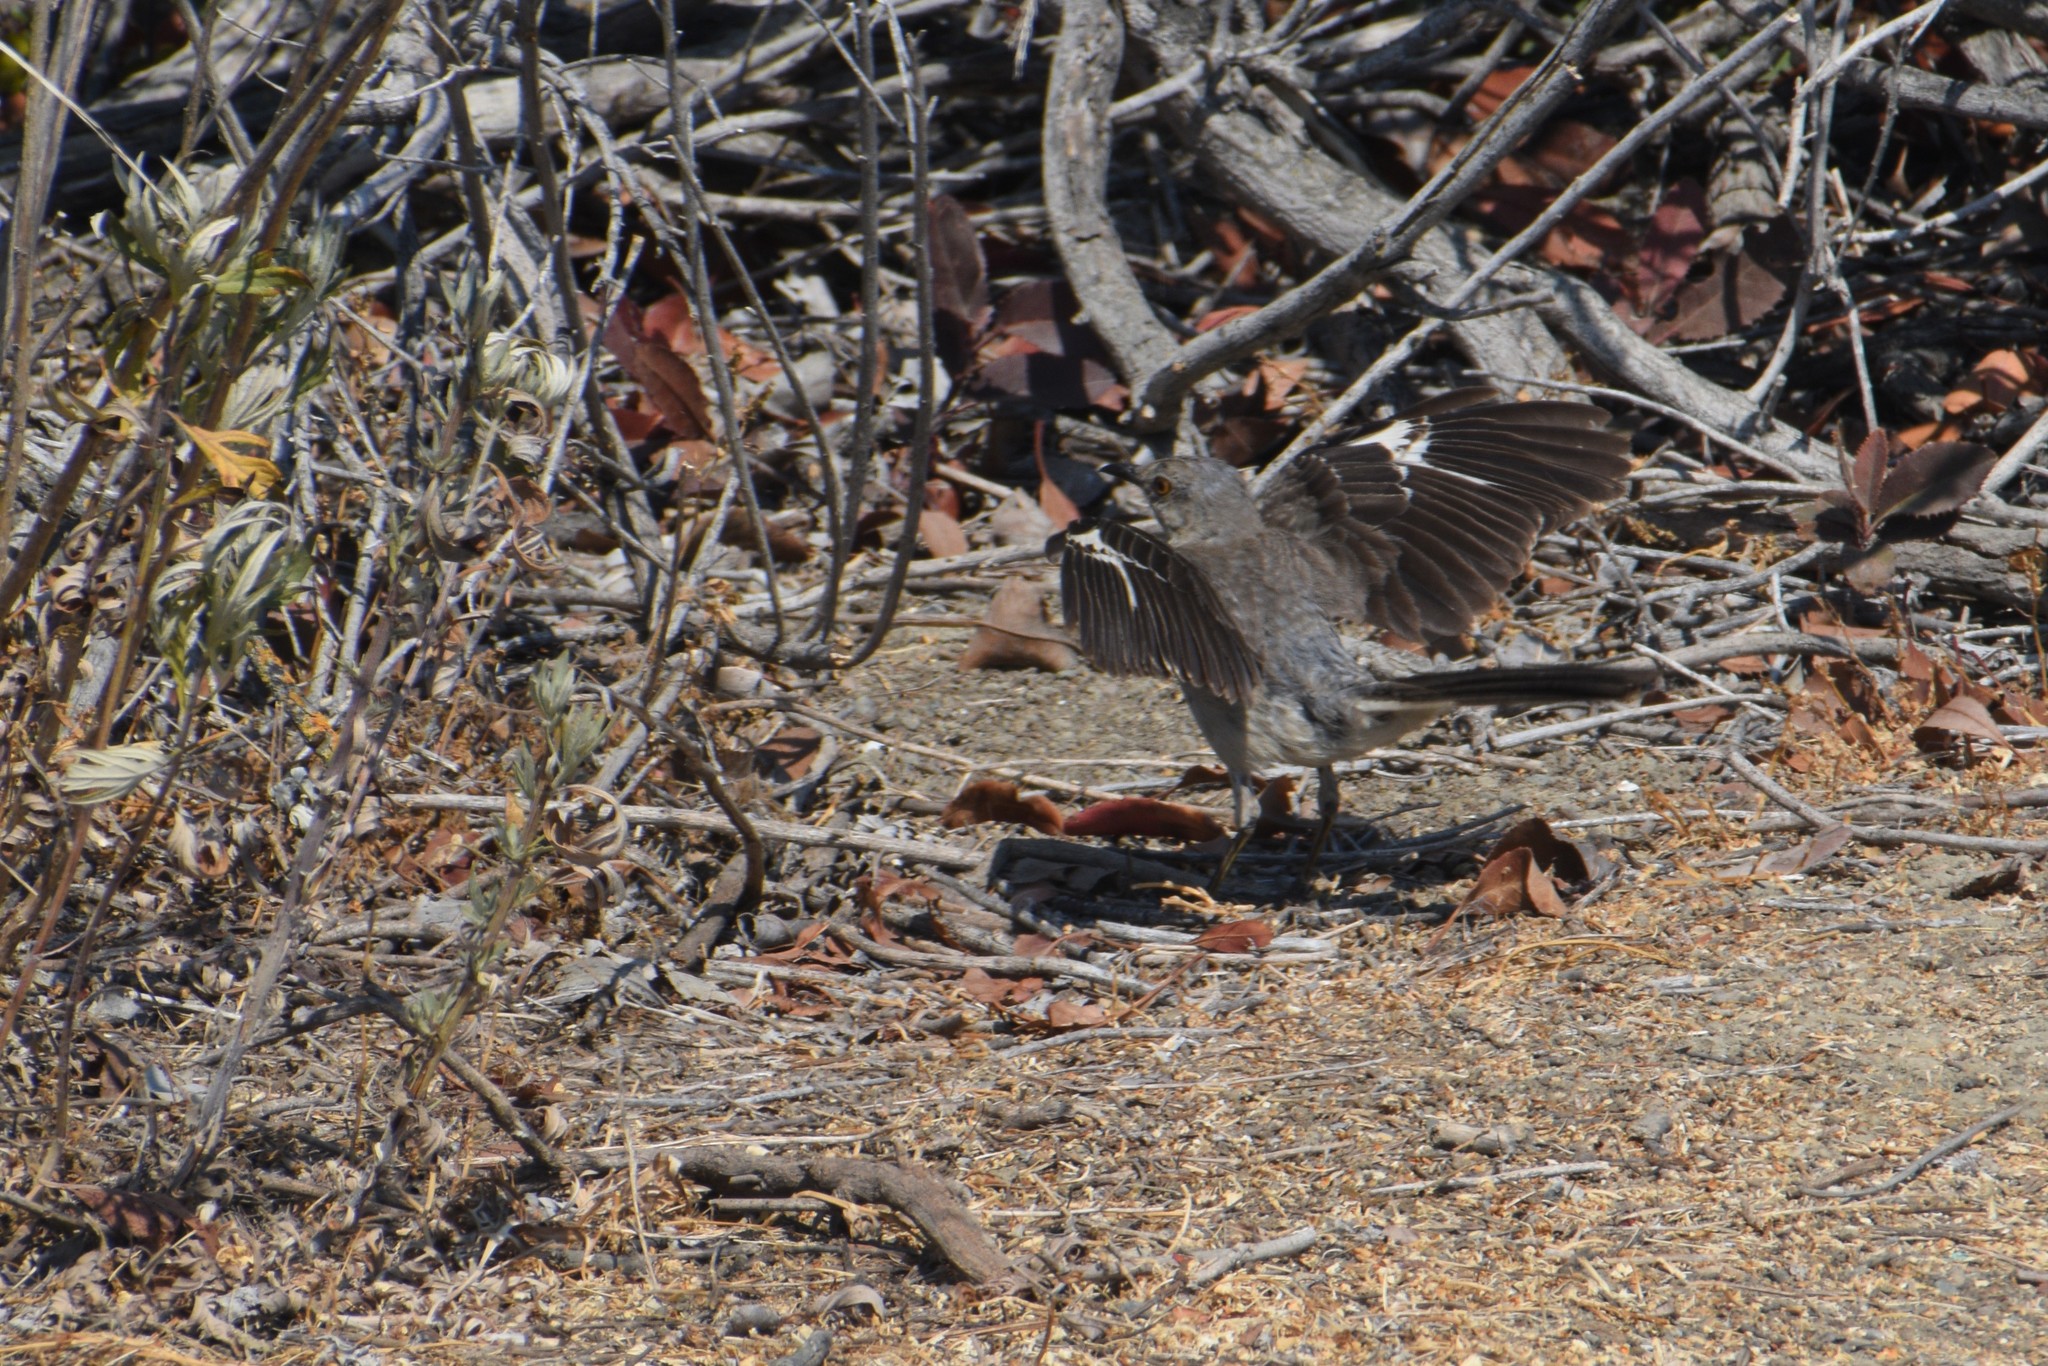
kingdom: Animalia
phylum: Chordata
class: Aves
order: Passeriformes
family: Mimidae
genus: Mimus
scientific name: Mimus polyglottos
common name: Northern mockingbird
